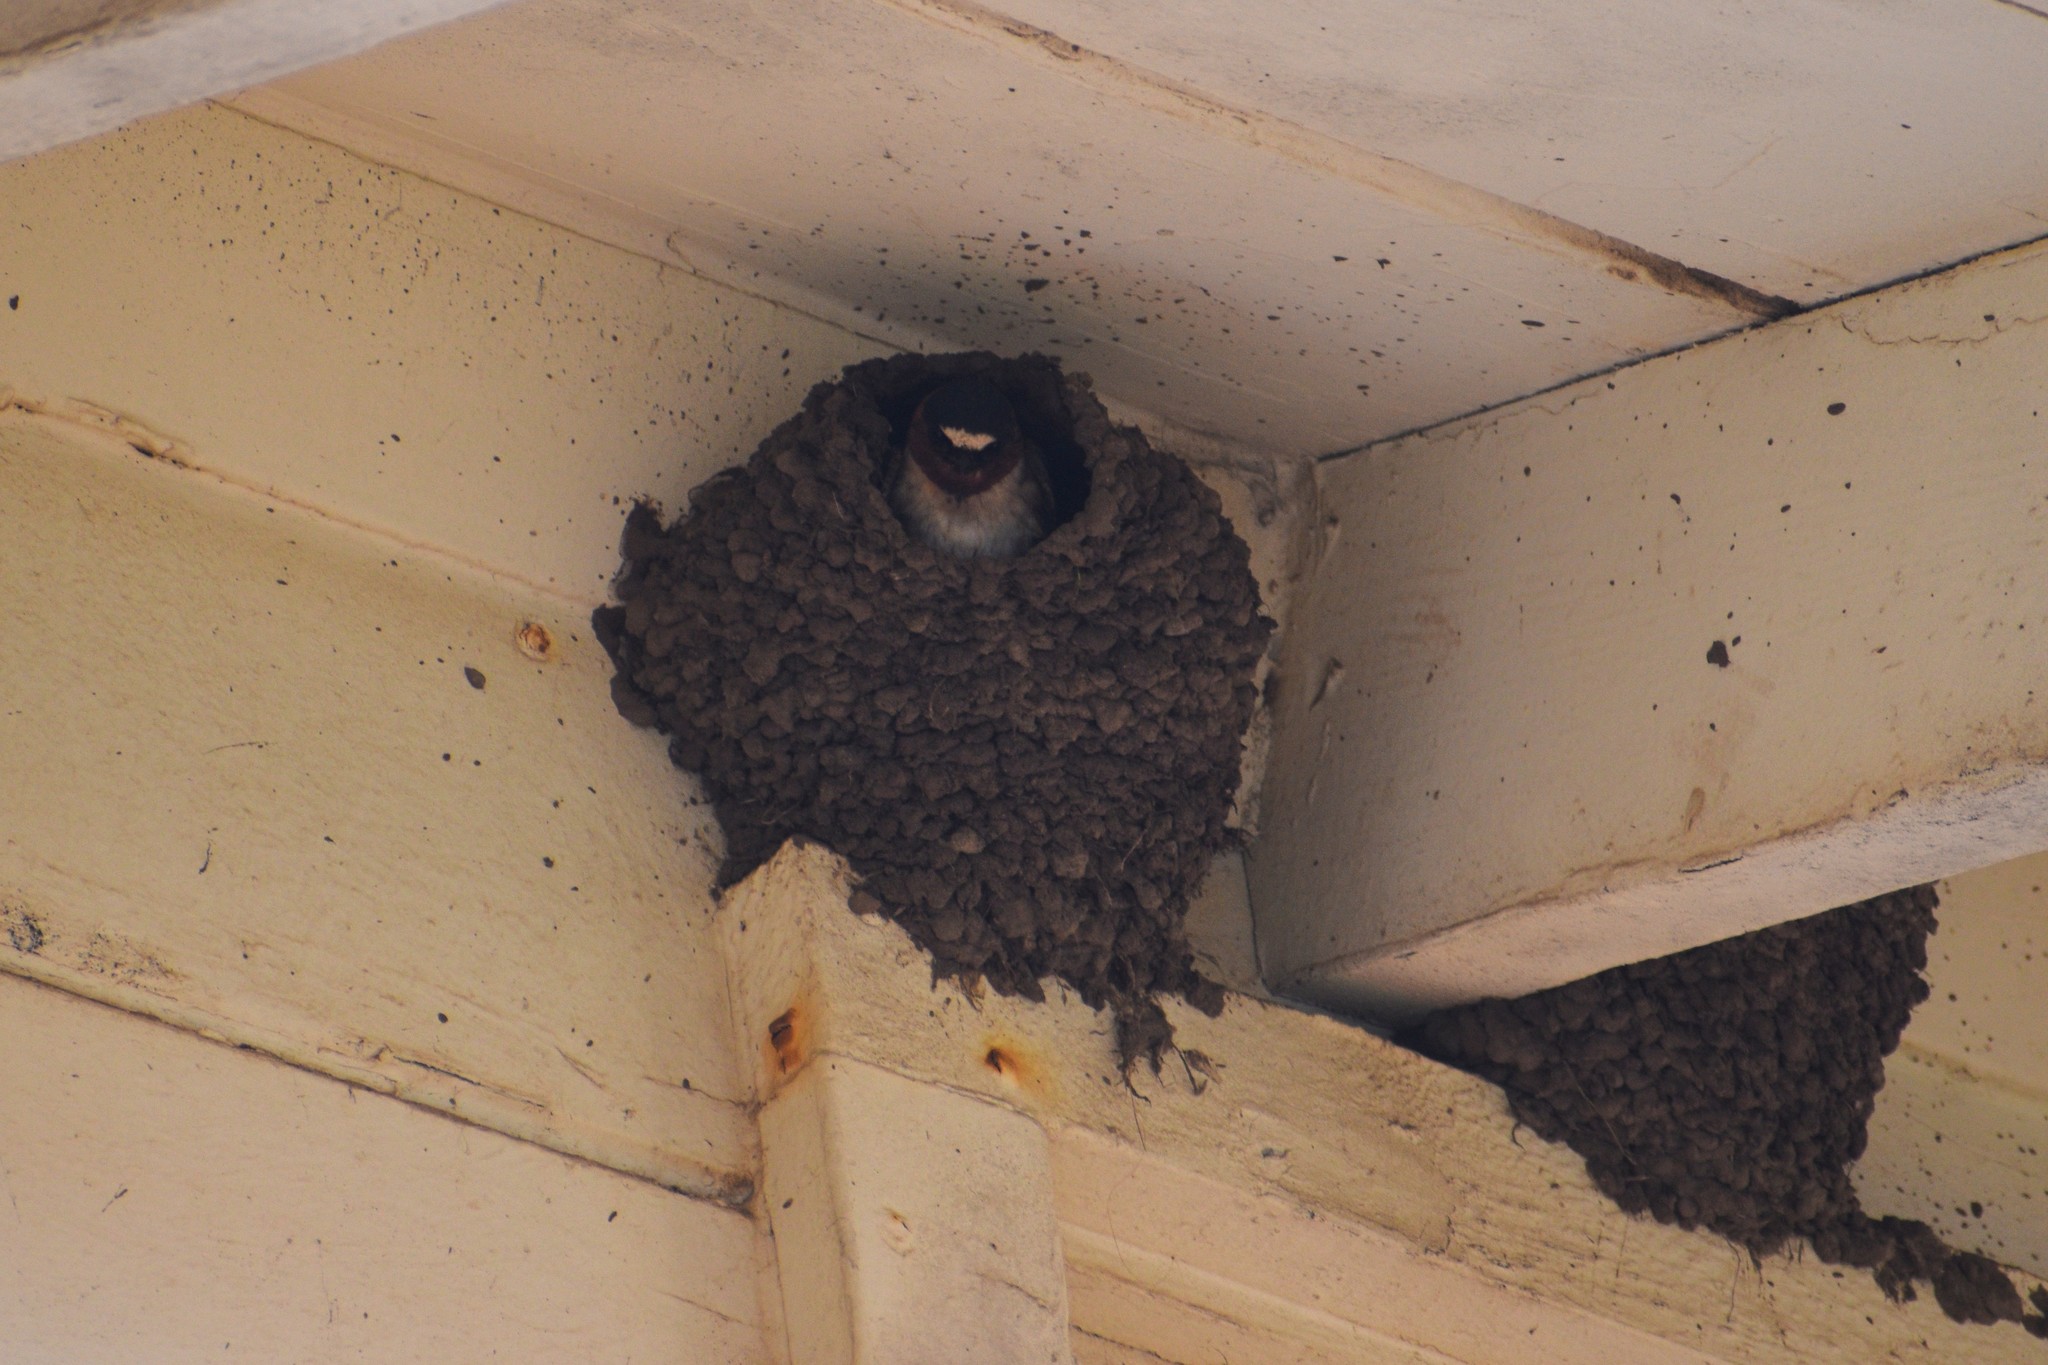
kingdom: Animalia
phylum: Chordata
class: Aves
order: Passeriformes
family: Hirundinidae
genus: Petrochelidon
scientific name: Petrochelidon pyrrhonota
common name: American cliff swallow
